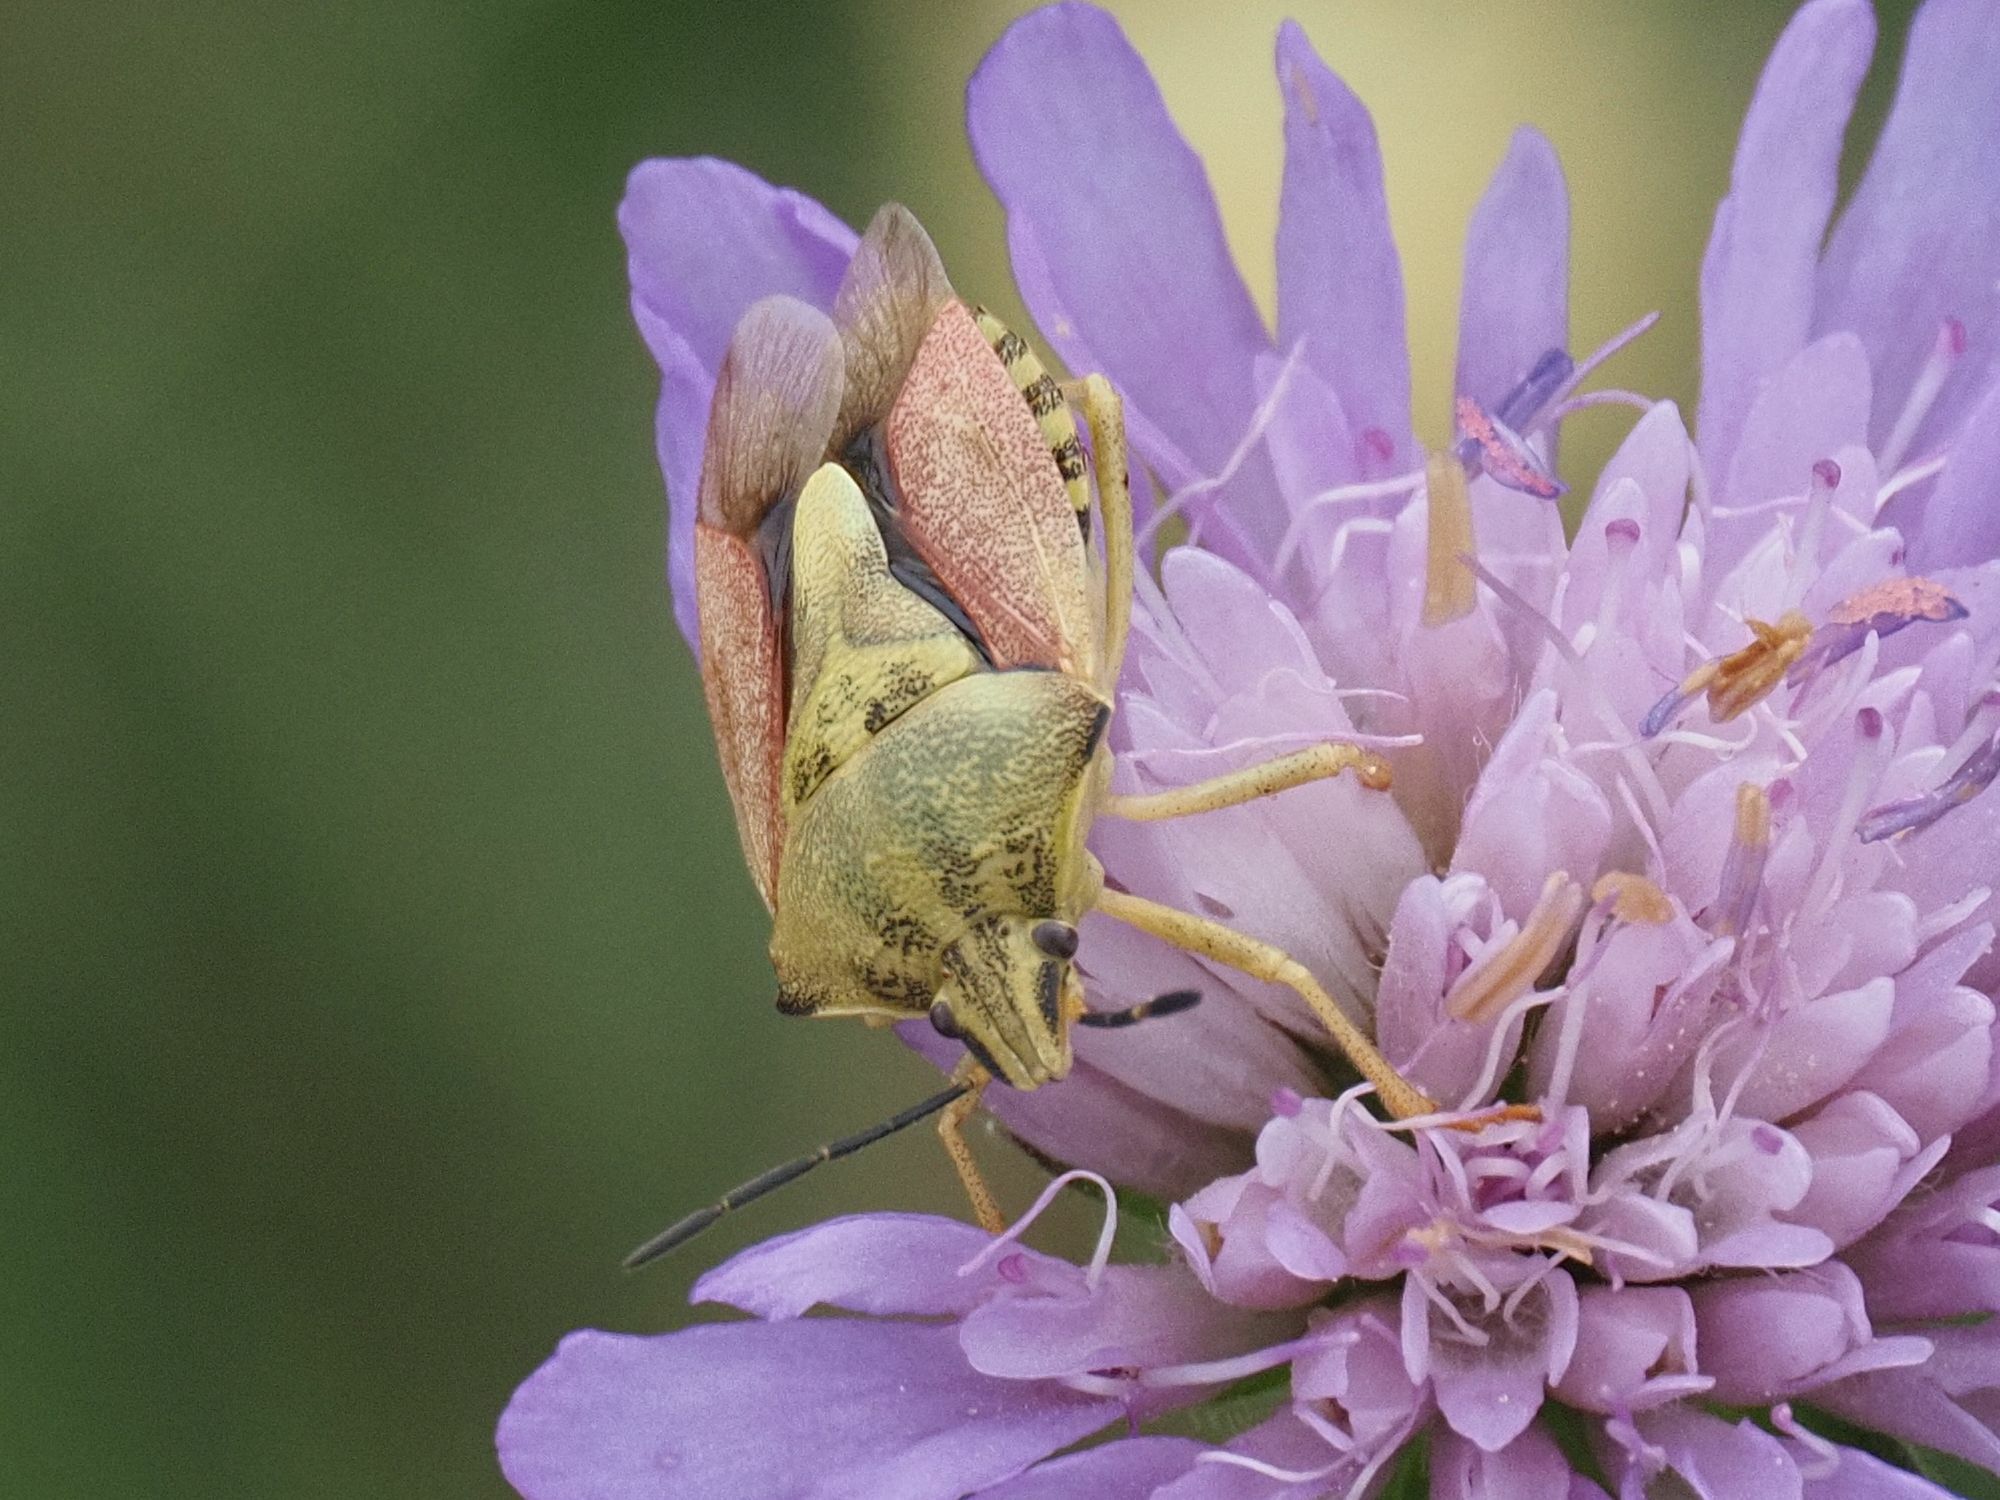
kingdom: Animalia
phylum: Arthropoda
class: Insecta
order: Hemiptera
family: Pentatomidae
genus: Carpocoris
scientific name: Carpocoris purpureipennis
